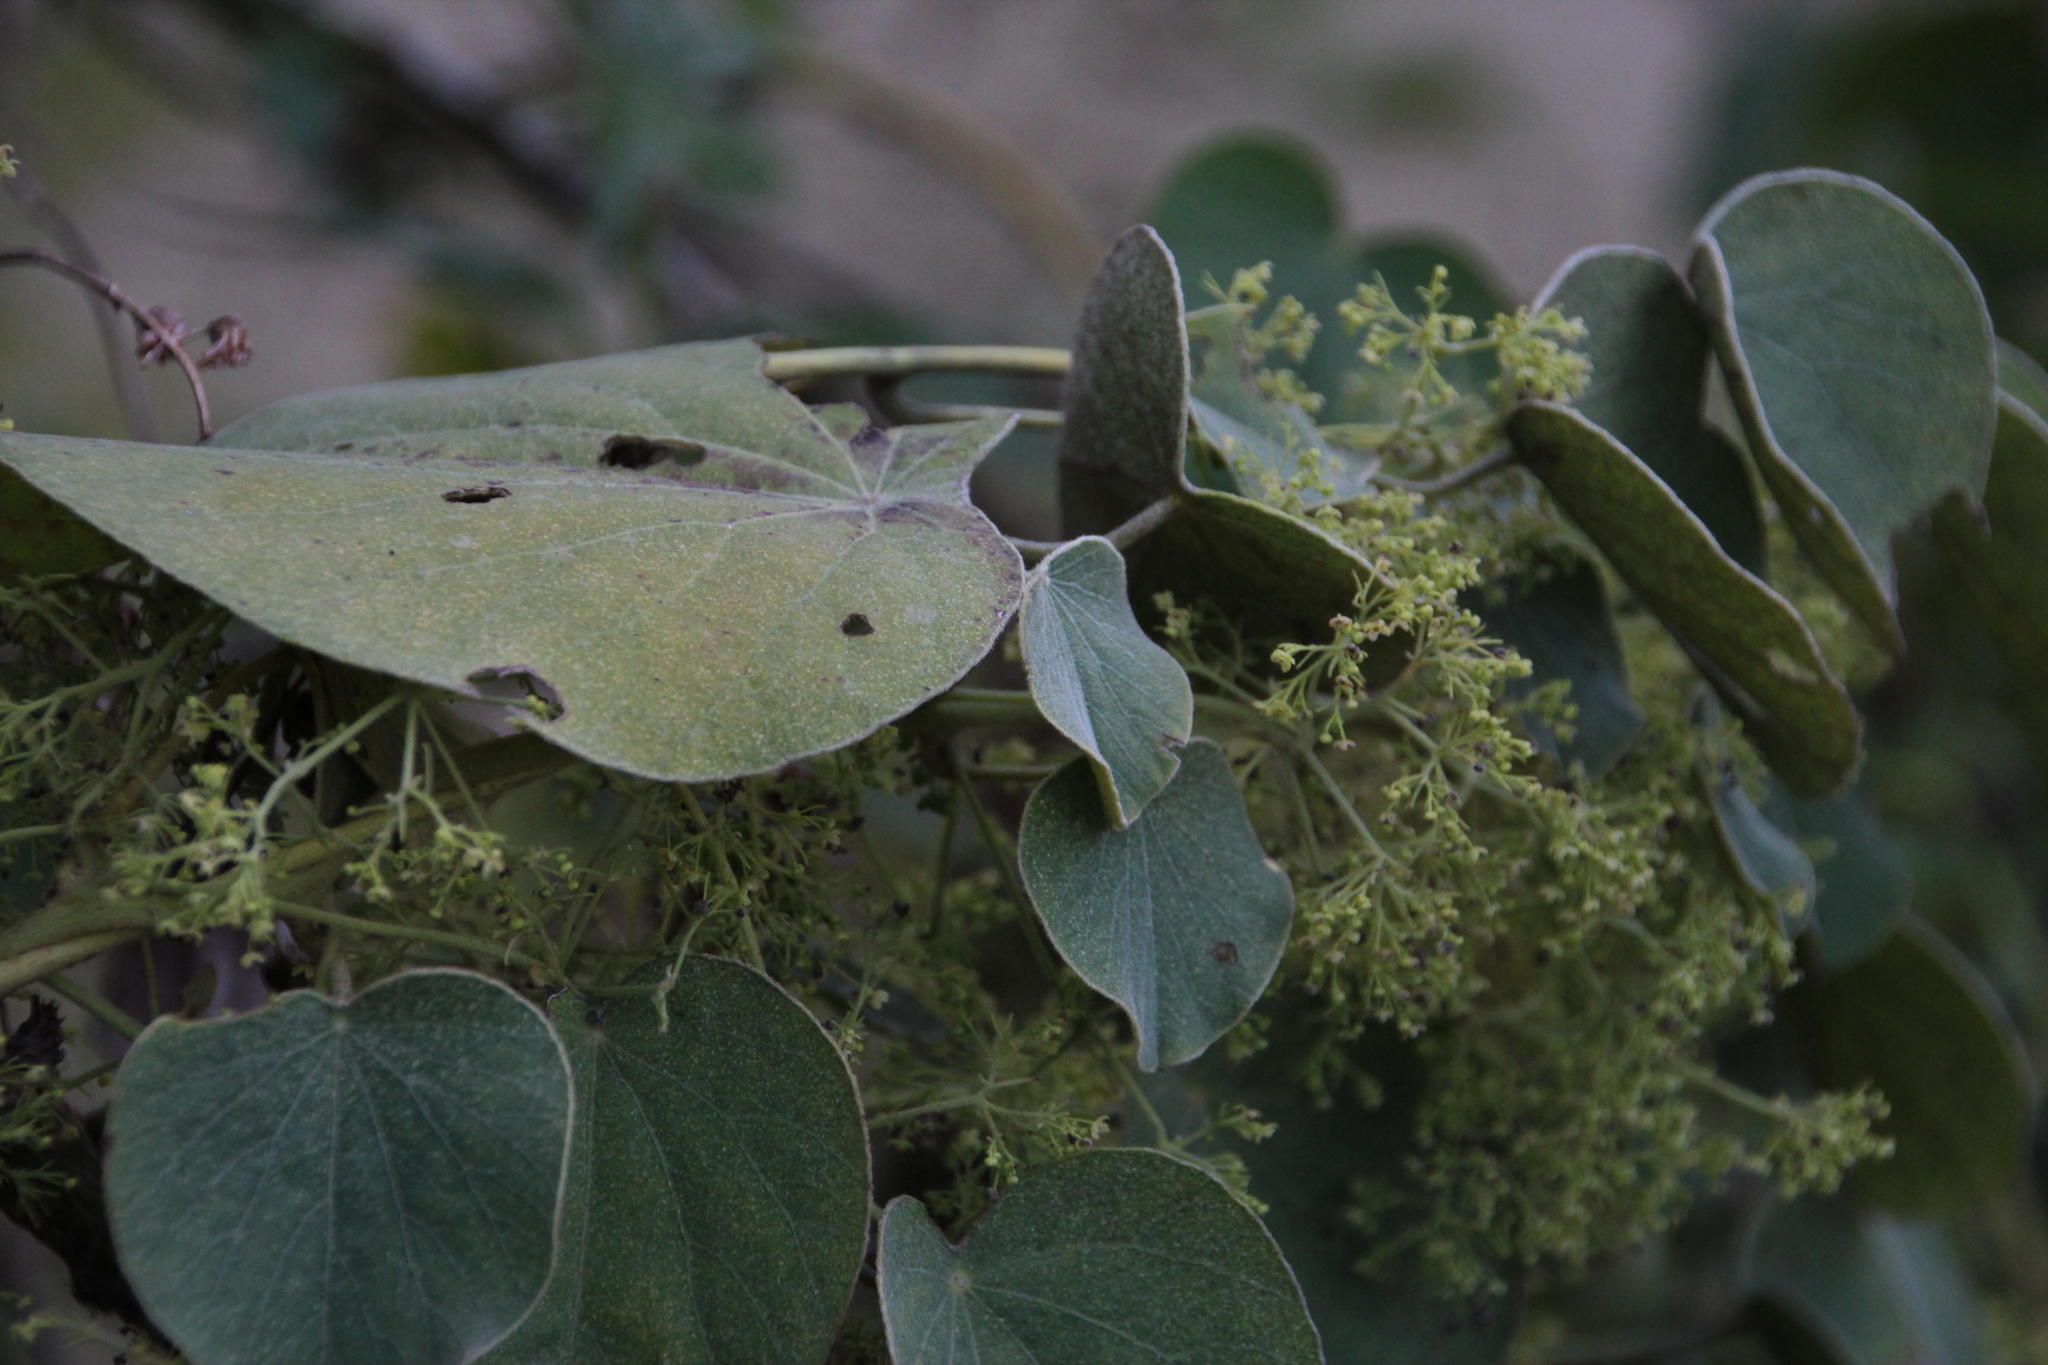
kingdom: Plantae
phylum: Tracheophyta
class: Magnoliopsida
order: Ranunculales
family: Menispermaceae
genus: Cissampelos
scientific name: Cissampelos pareira
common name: Velvetleaf
